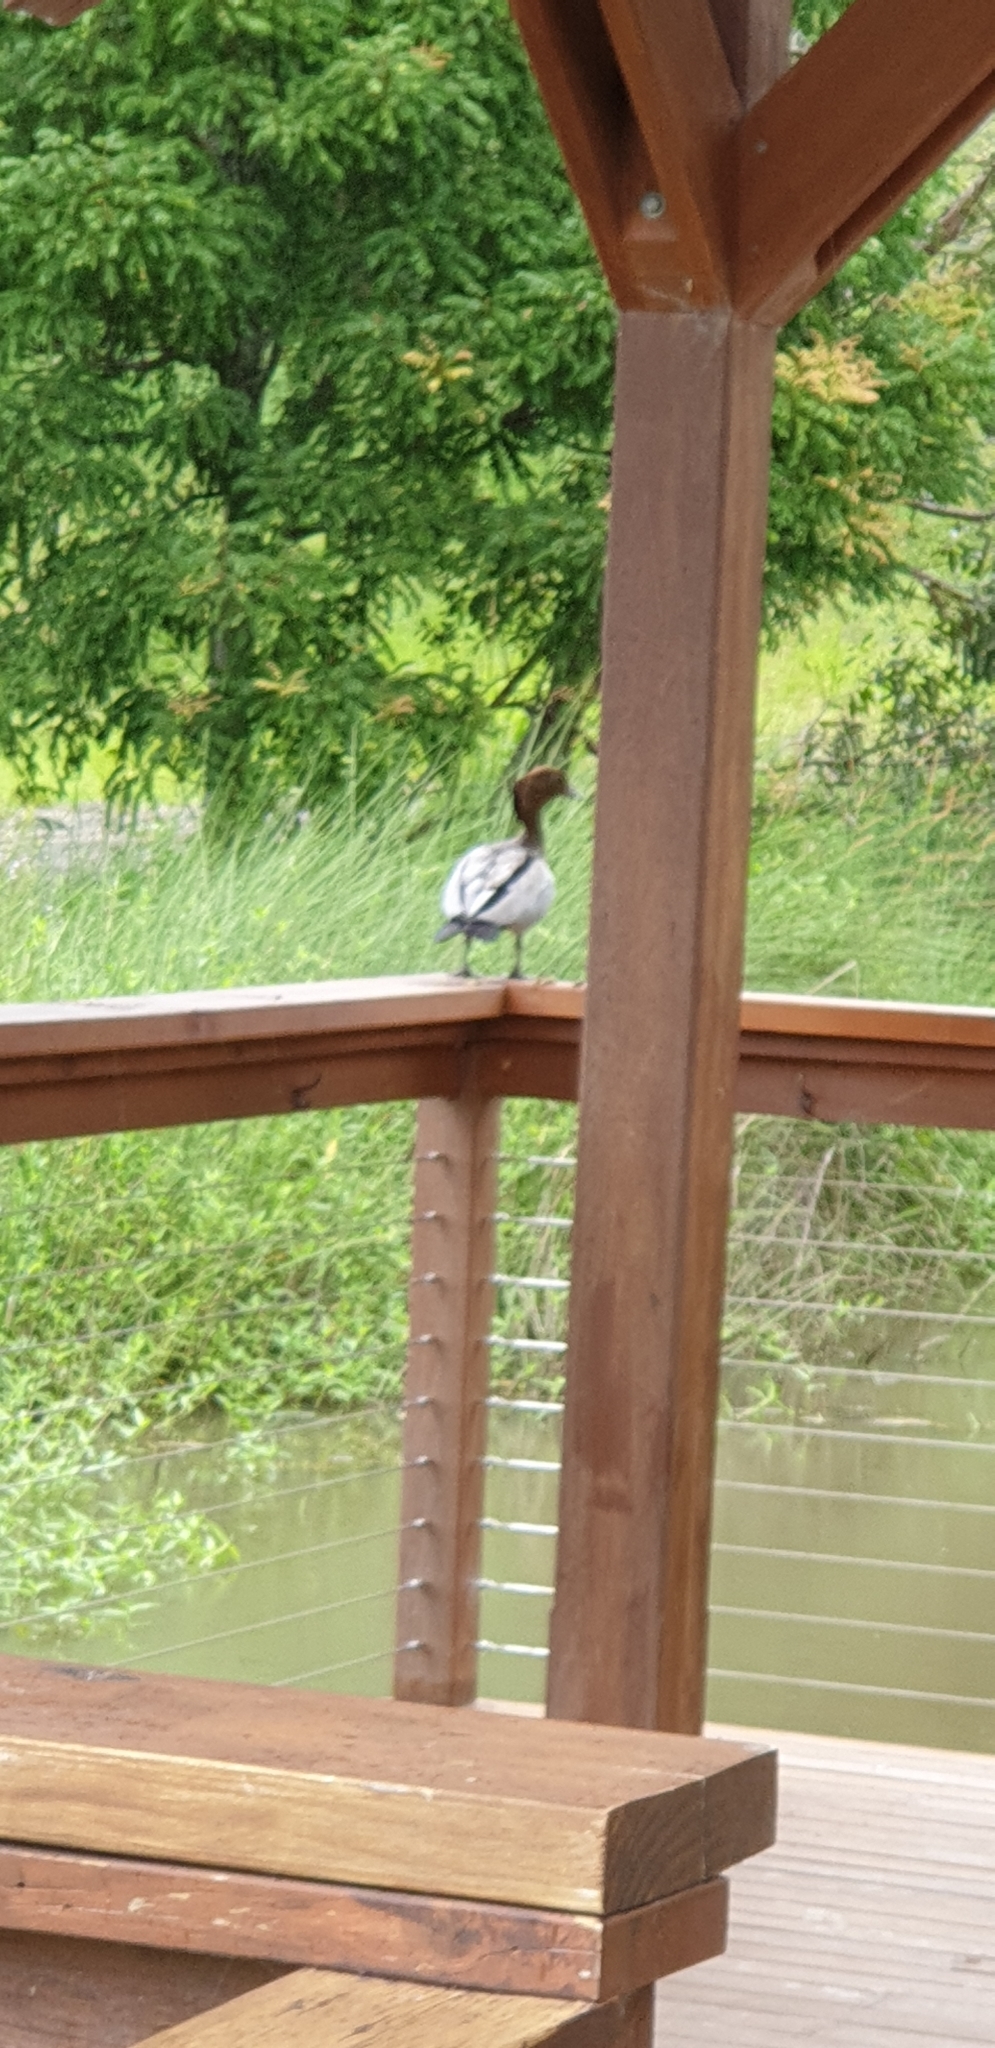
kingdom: Animalia
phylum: Chordata
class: Aves
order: Anseriformes
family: Anatidae
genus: Chenonetta
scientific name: Chenonetta jubata
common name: Maned duck
